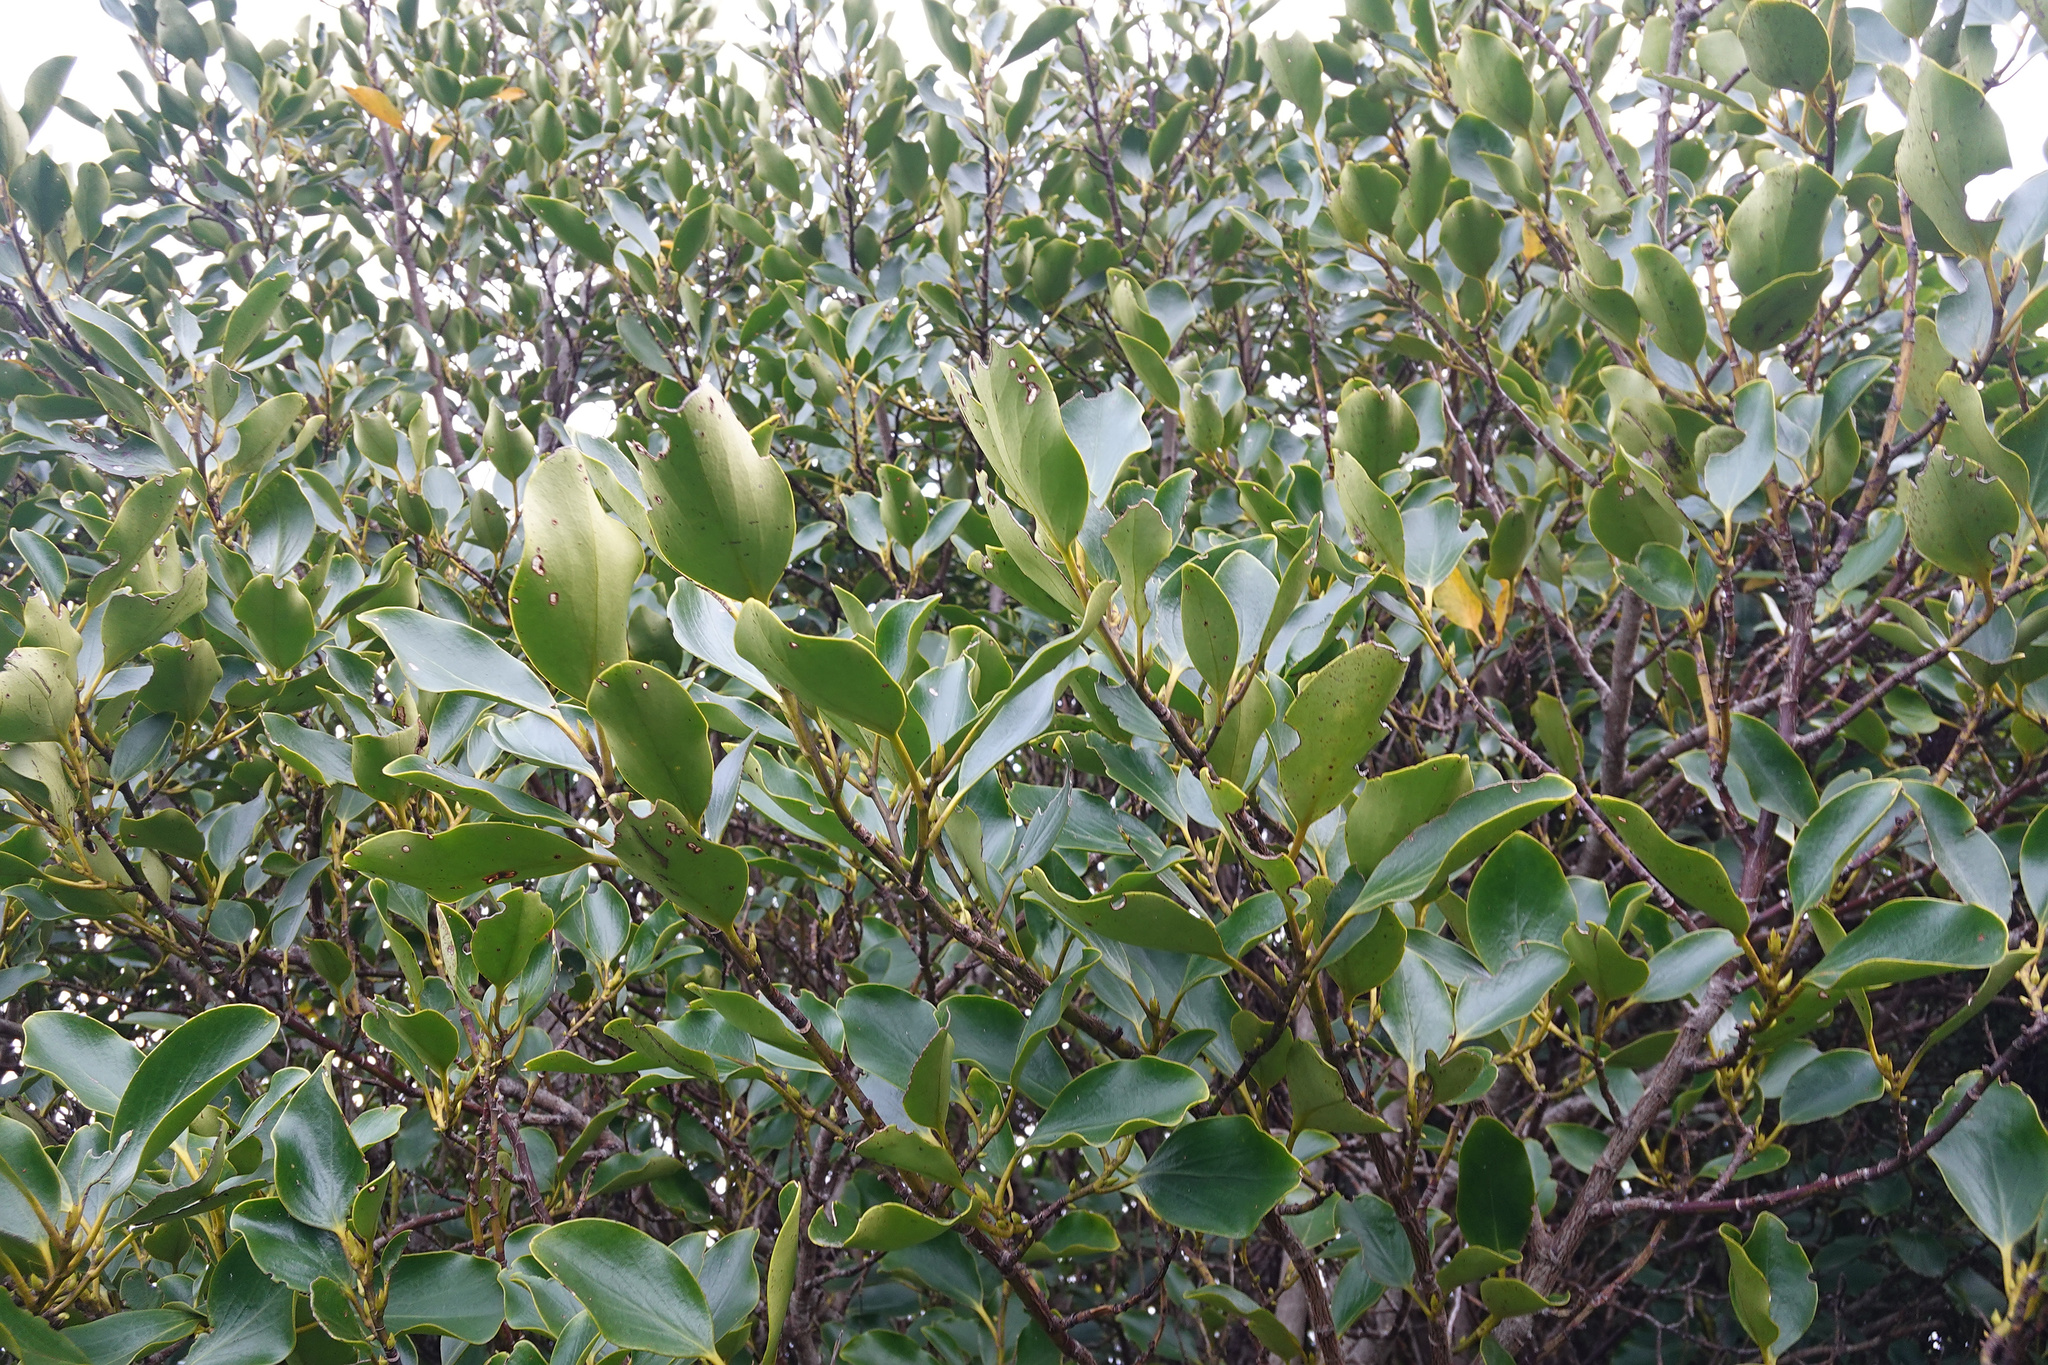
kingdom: Plantae
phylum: Tracheophyta
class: Magnoliopsida
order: Apiales
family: Griseliniaceae
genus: Griselinia
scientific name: Griselinia littoralis
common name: New zealand broadleaf
